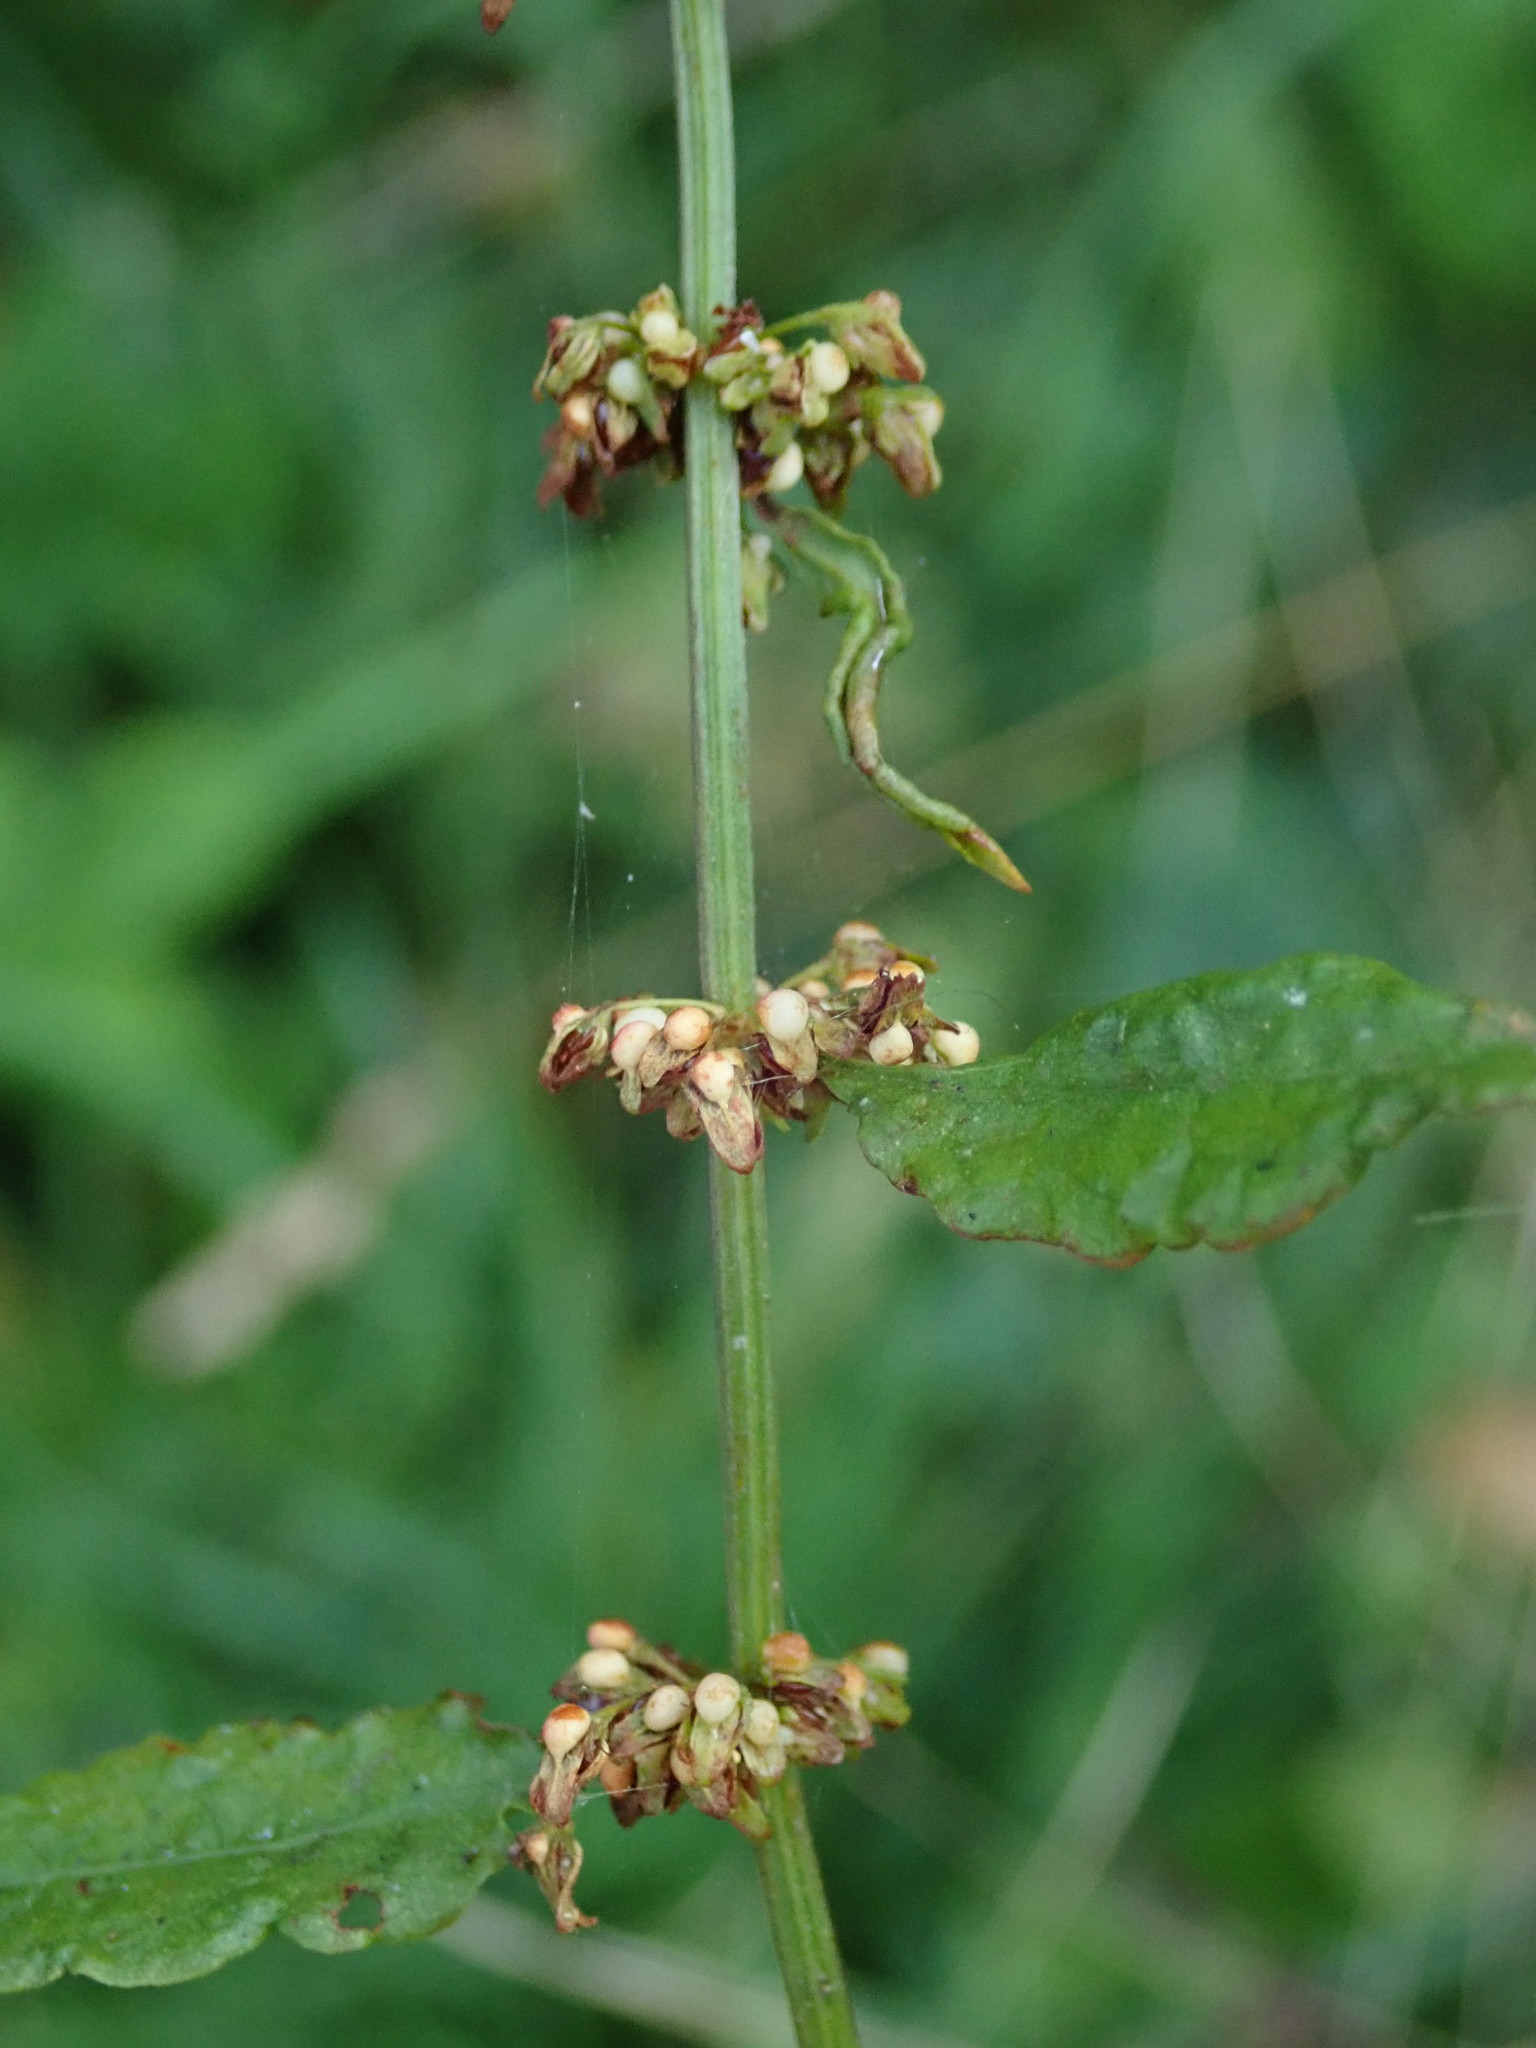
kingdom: Plantae
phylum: Tracheophyta
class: Magnoliopsida
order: Caryophyllales
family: Polygonaceae
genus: Rumex
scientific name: Rumex sanguineus
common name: Wood dock
